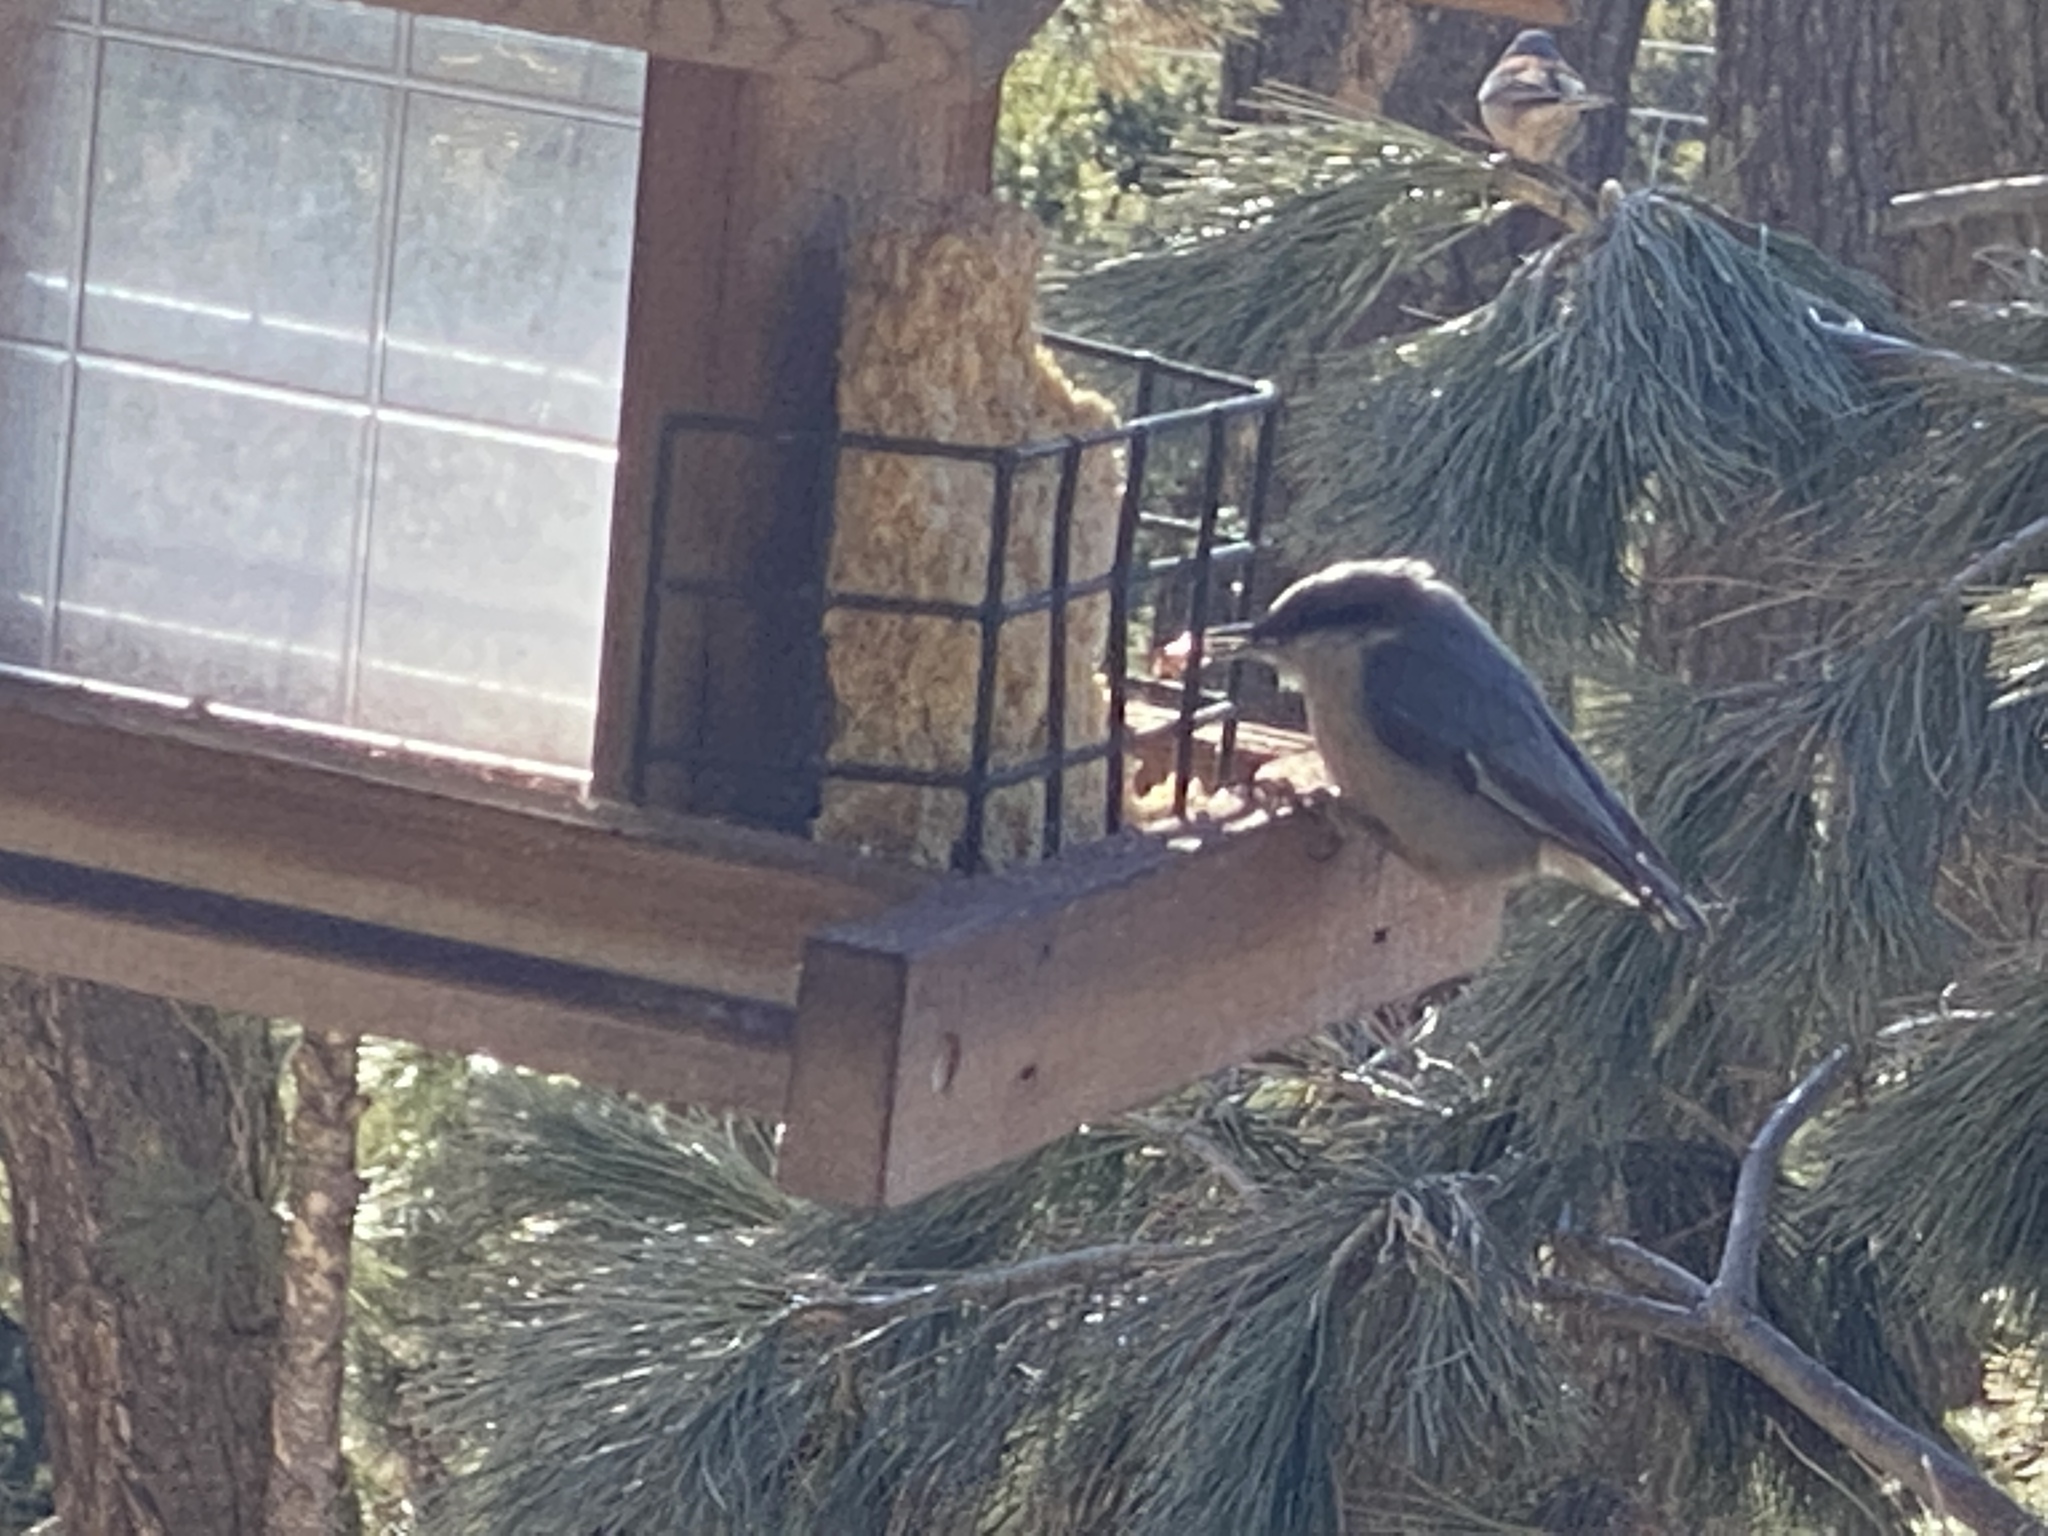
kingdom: Animalia
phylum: Chordata
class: Aves
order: Passeriformes
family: Sittidae
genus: Sitta
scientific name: Sitta pygmaea
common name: Pygmy nuthatch
